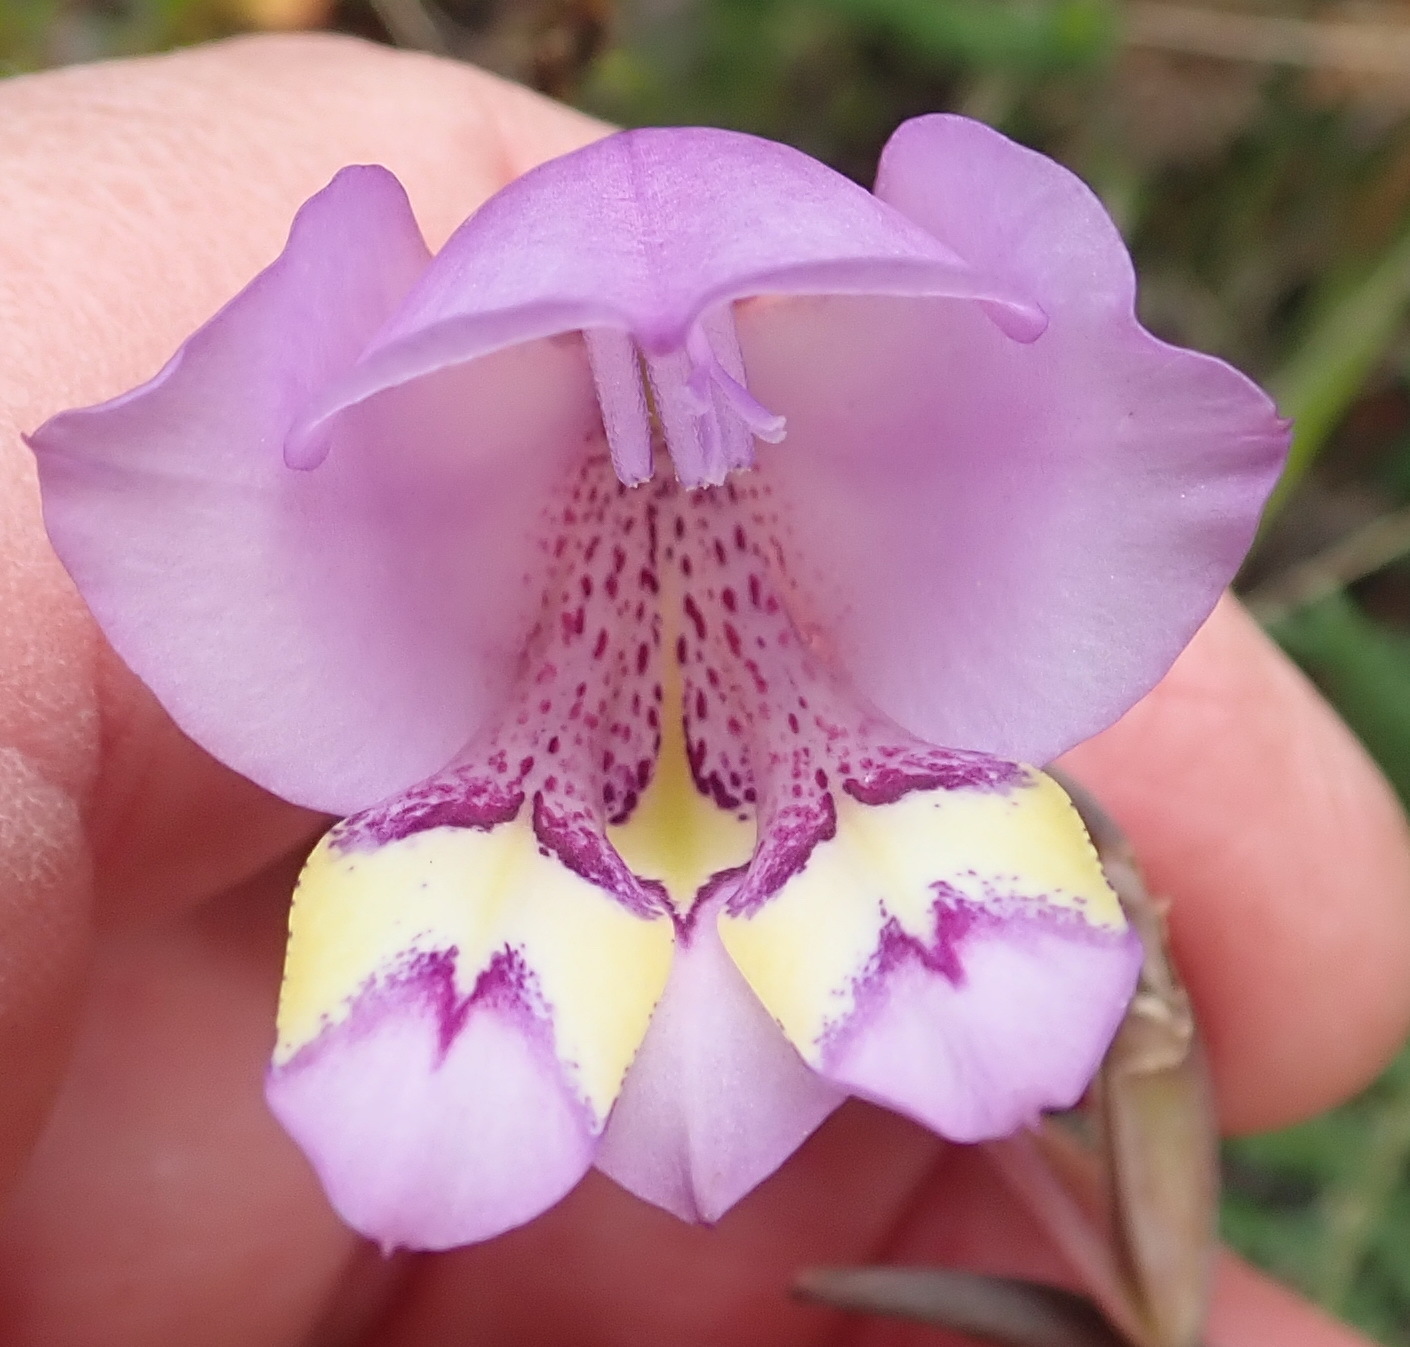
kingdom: Plantae
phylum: Tracheophyta
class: Liliopsida
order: Asparagales
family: Iridaceae
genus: Gladiolus
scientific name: Gladiolus rogersii
